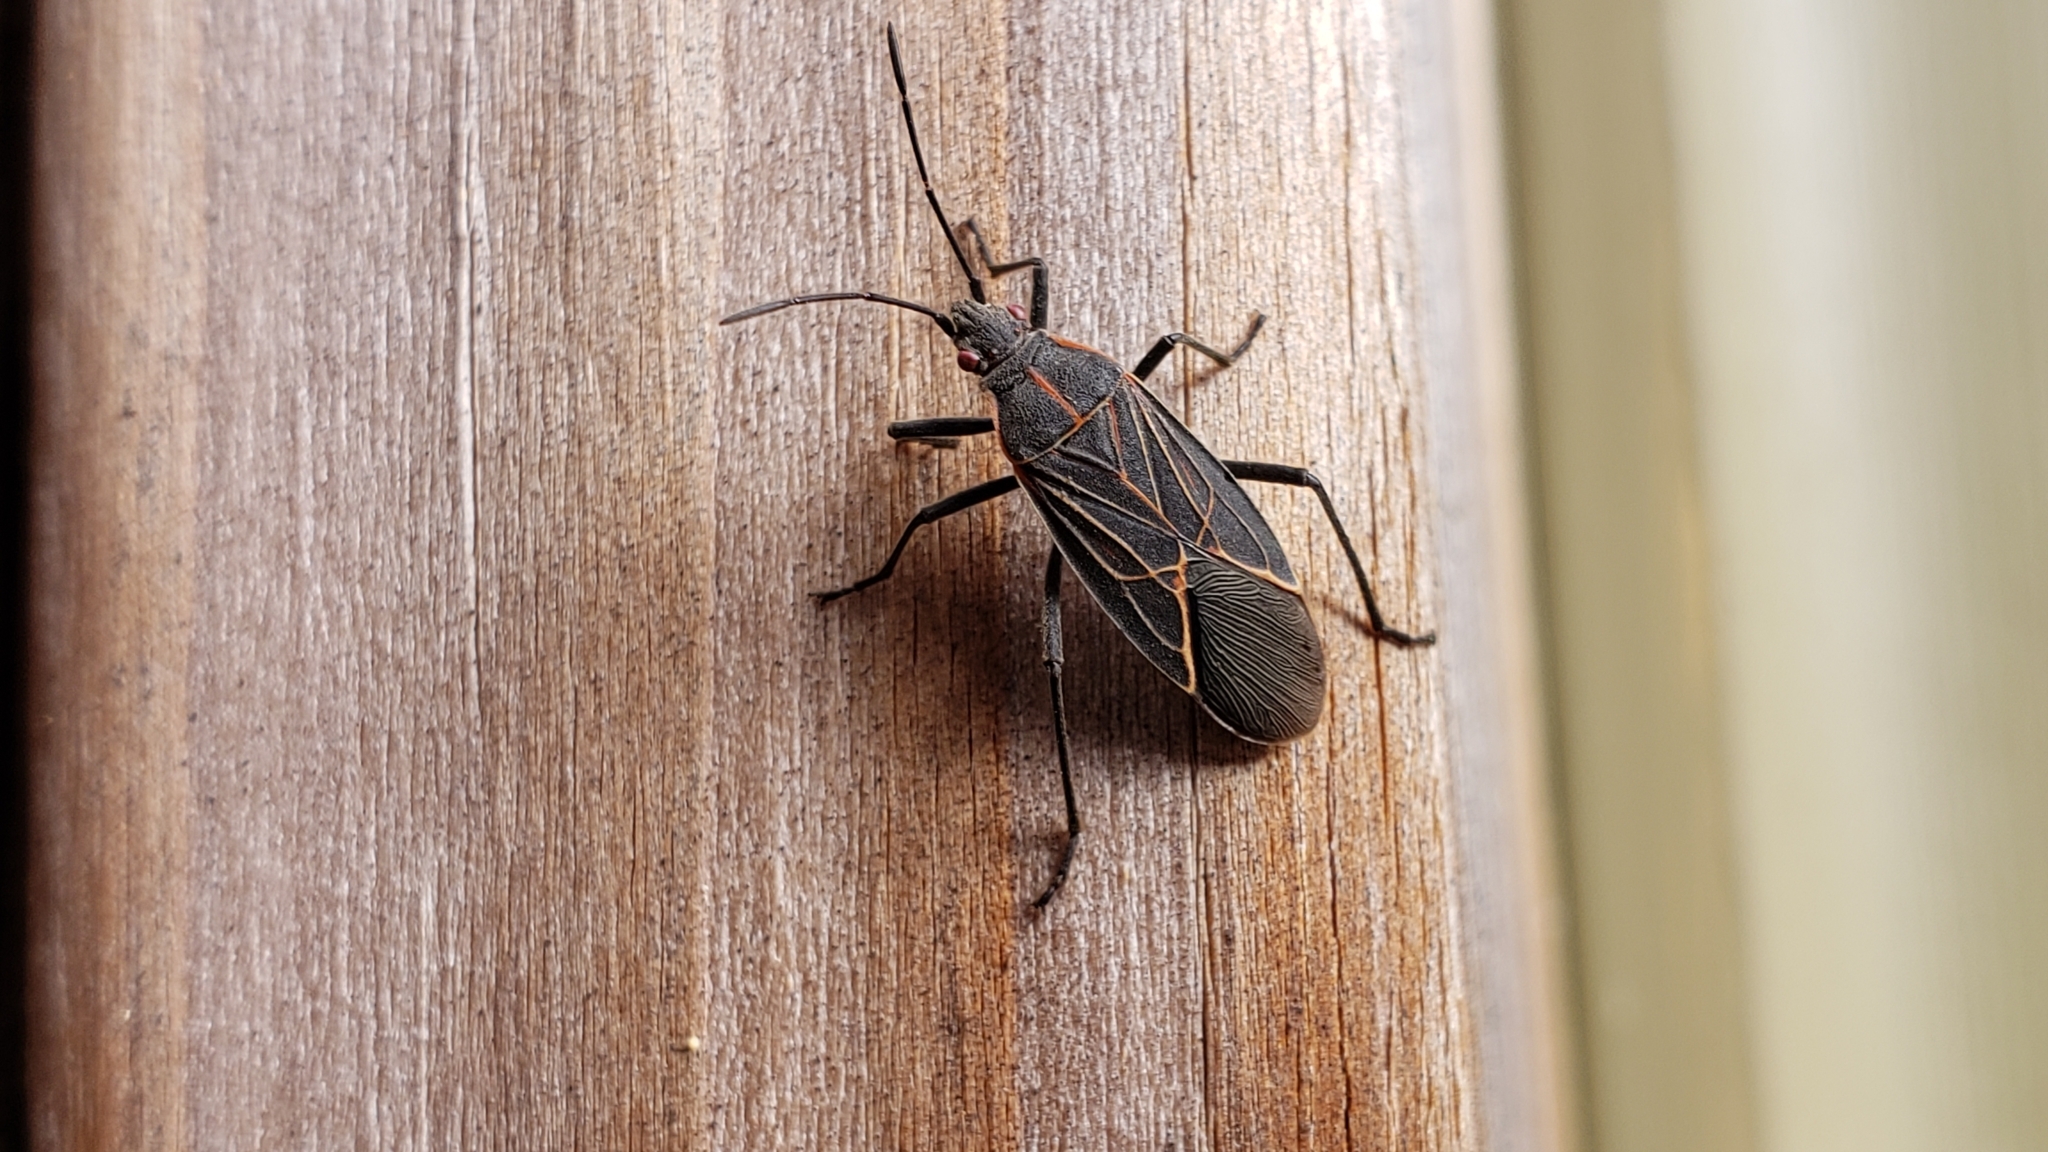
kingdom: Animalia
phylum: Arthropoda
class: Insecta
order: Hemiptera
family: Rhopalidae
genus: Boisea
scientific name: Boisea rubrolineata
